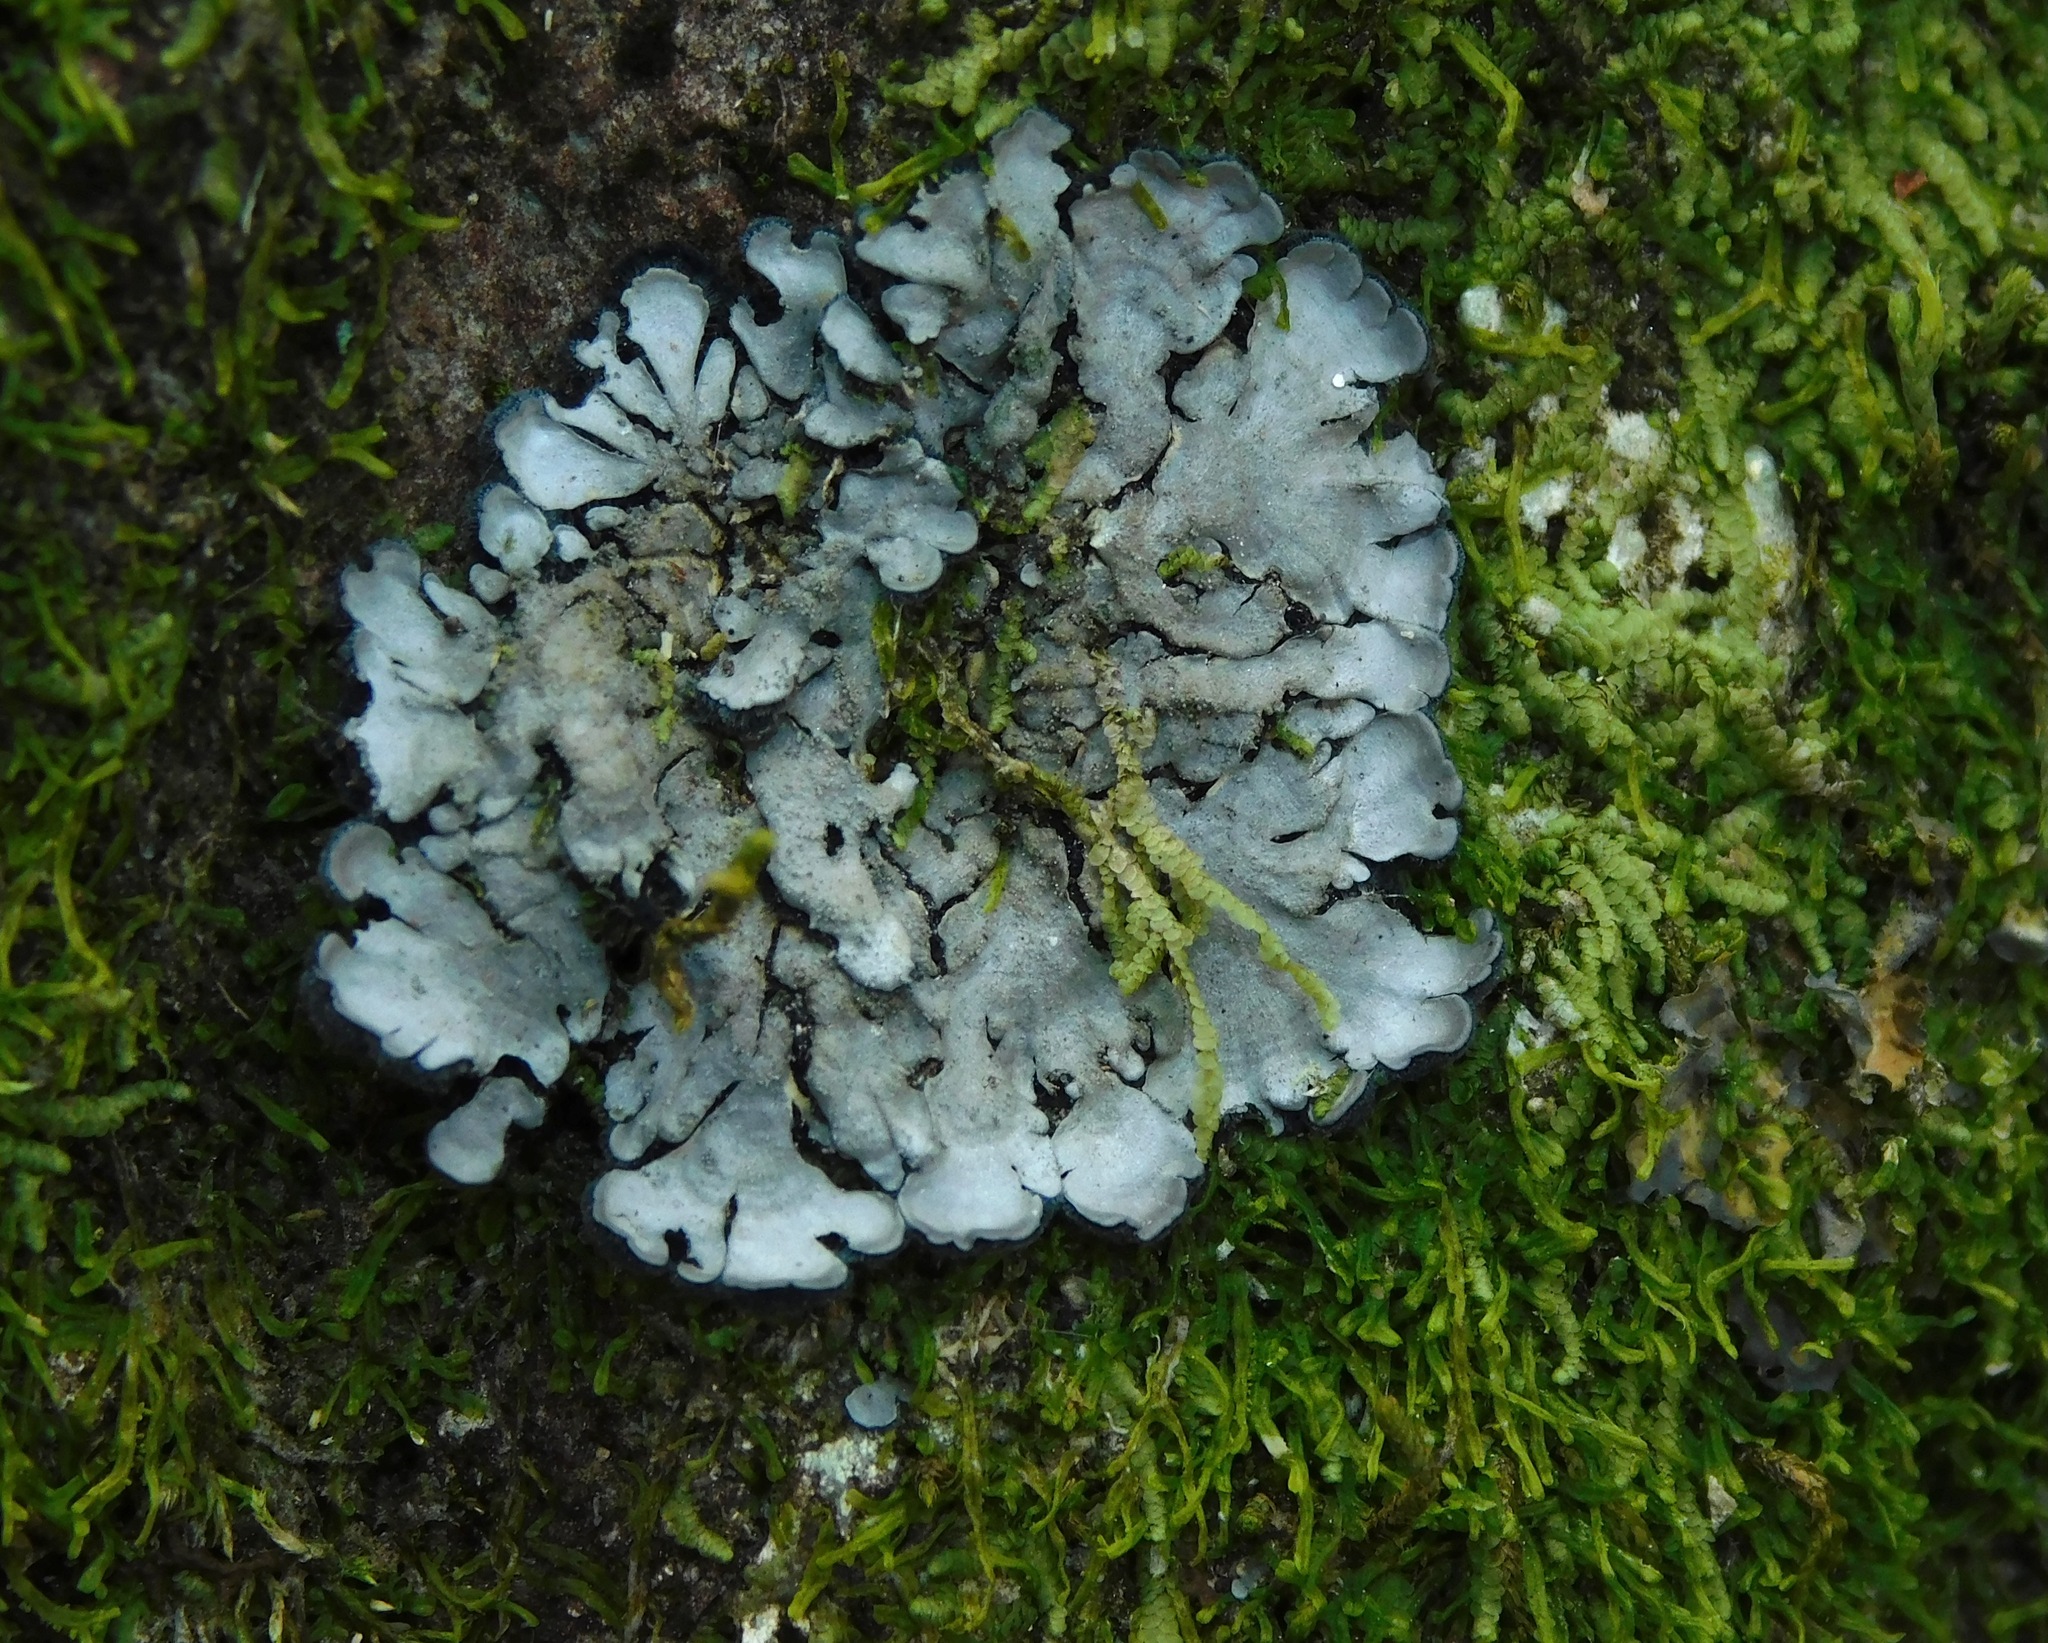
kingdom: Fungi
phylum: Ascomycota
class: Lecanoromycetes
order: Peltigerales
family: Coccocarpiaceae
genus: Coccocarpia
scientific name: Coccocarpia palmicola
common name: Salted shell lichen
